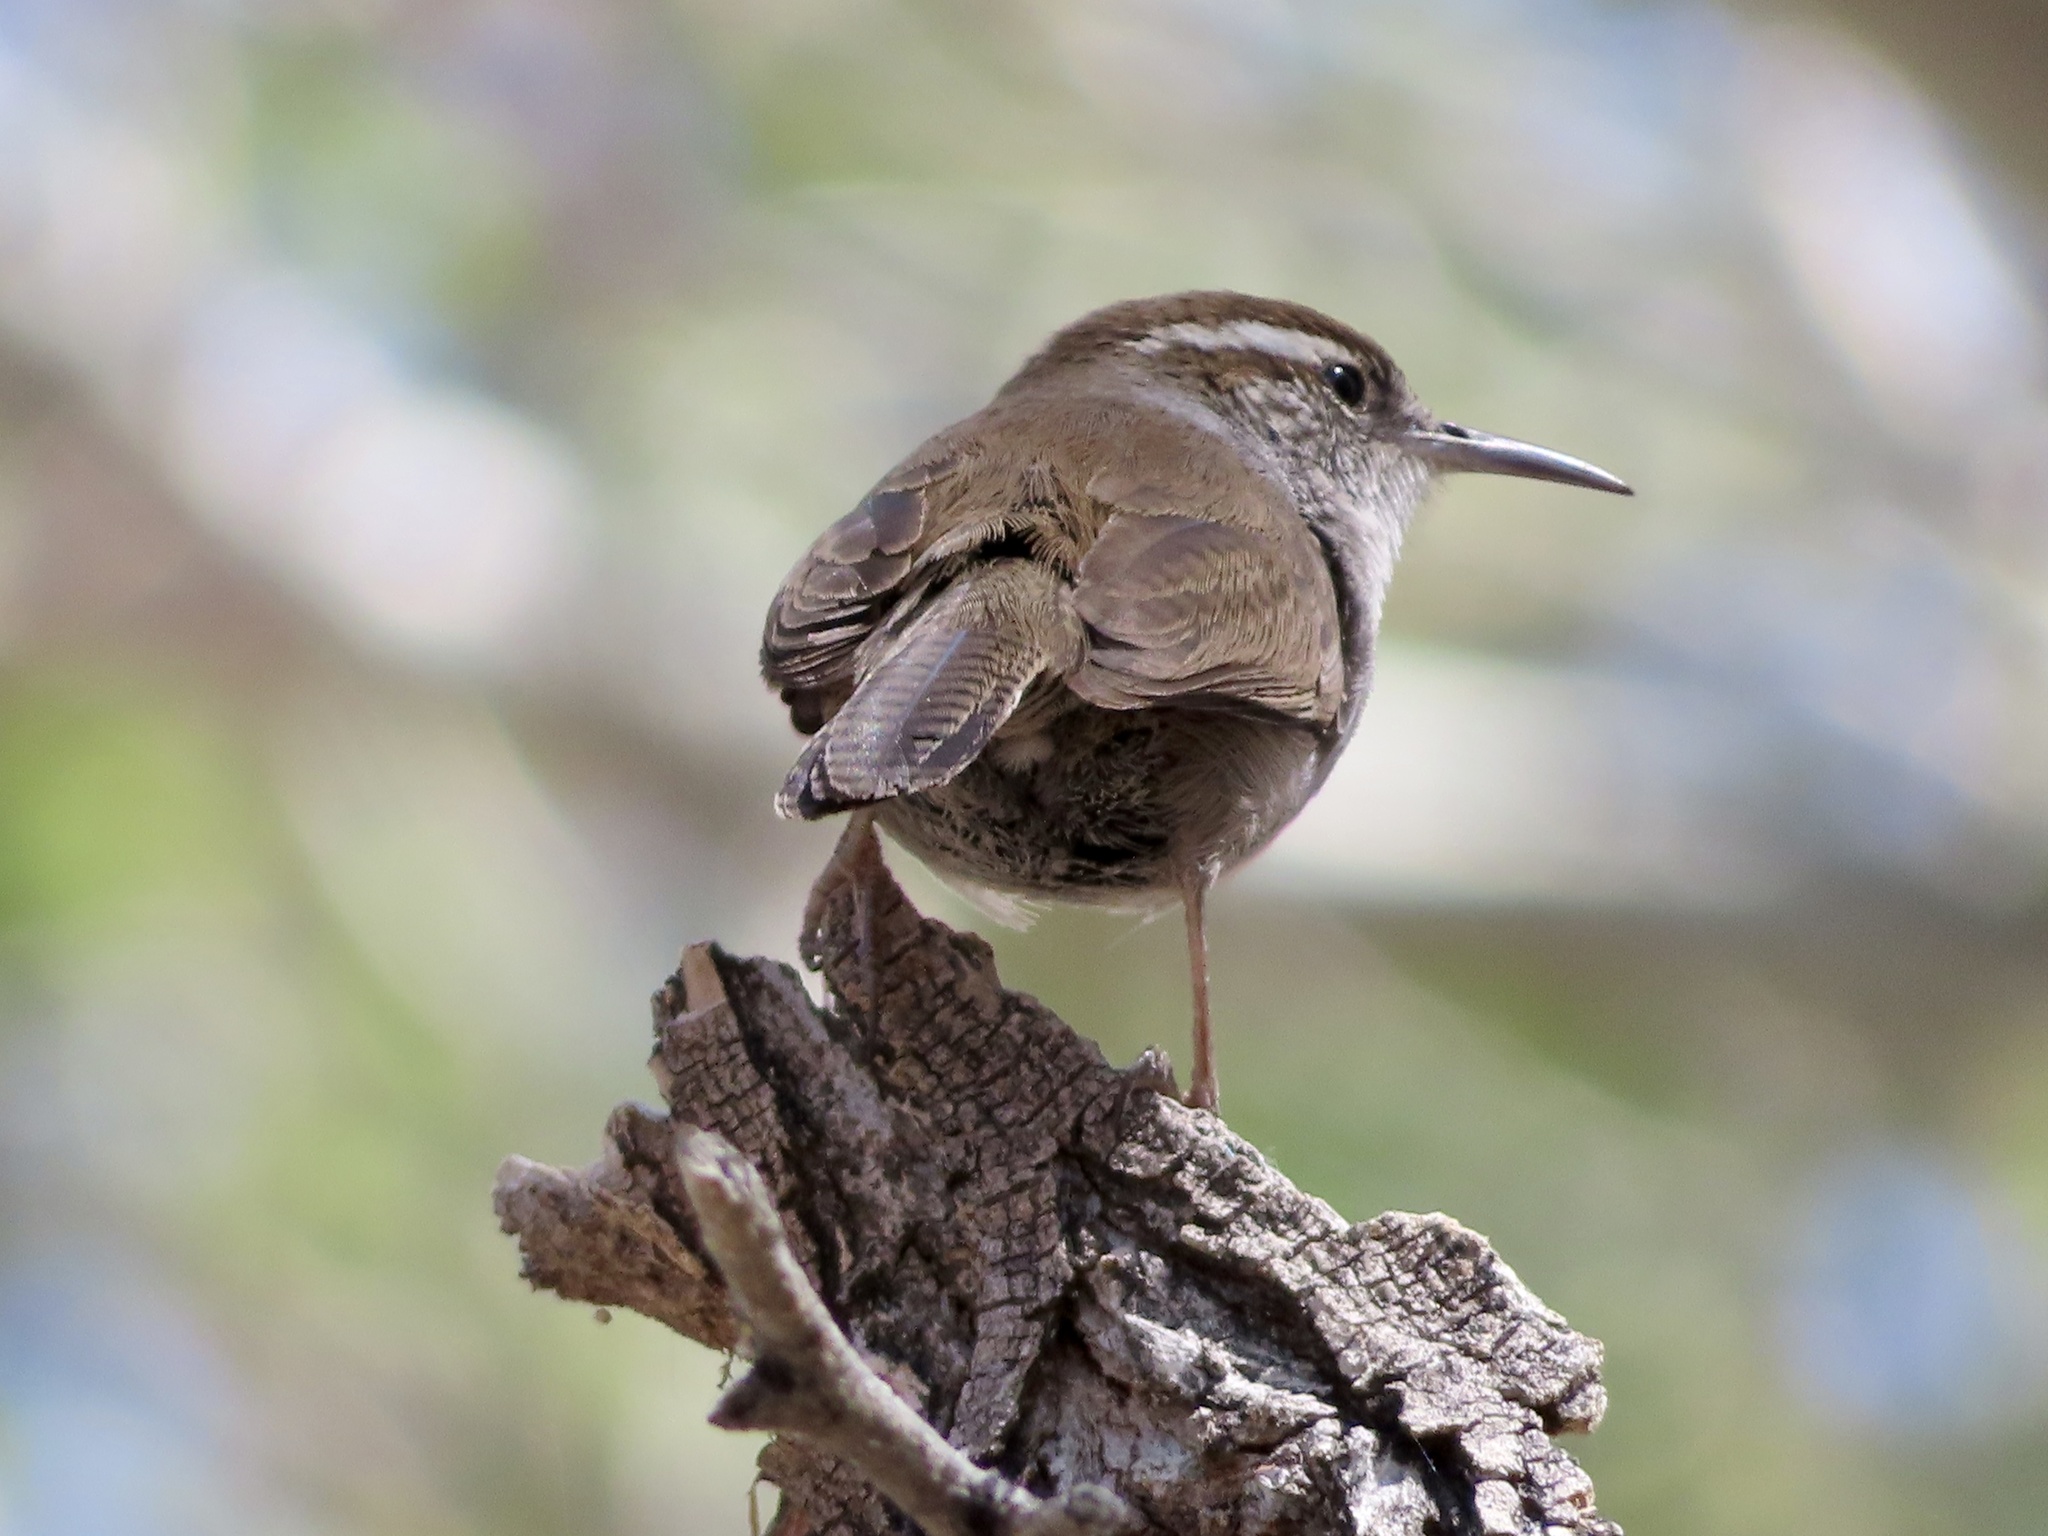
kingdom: Animalia
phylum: Chordata
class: Aves
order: Passeriformes
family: Troglodytidae
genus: Thryomanes
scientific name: Thryomanes bewickii
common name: Bewick's wren
